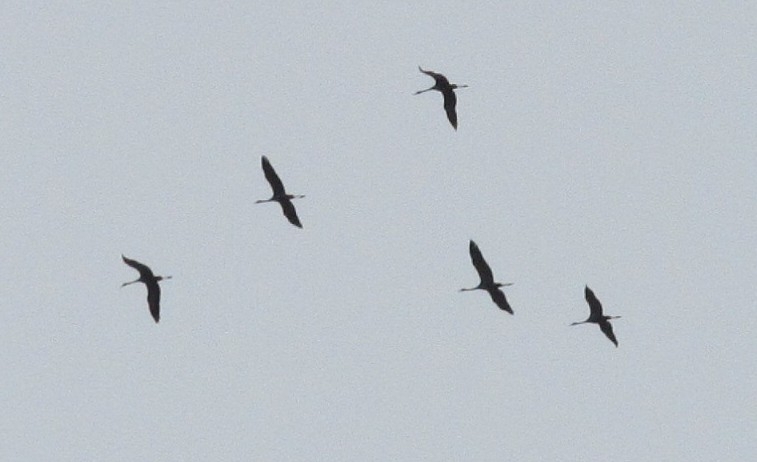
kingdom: Animalia
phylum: Chordata
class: Aves
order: Gruiformes
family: Gruidae
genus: Grus
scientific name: Grus grus
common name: Common crane
